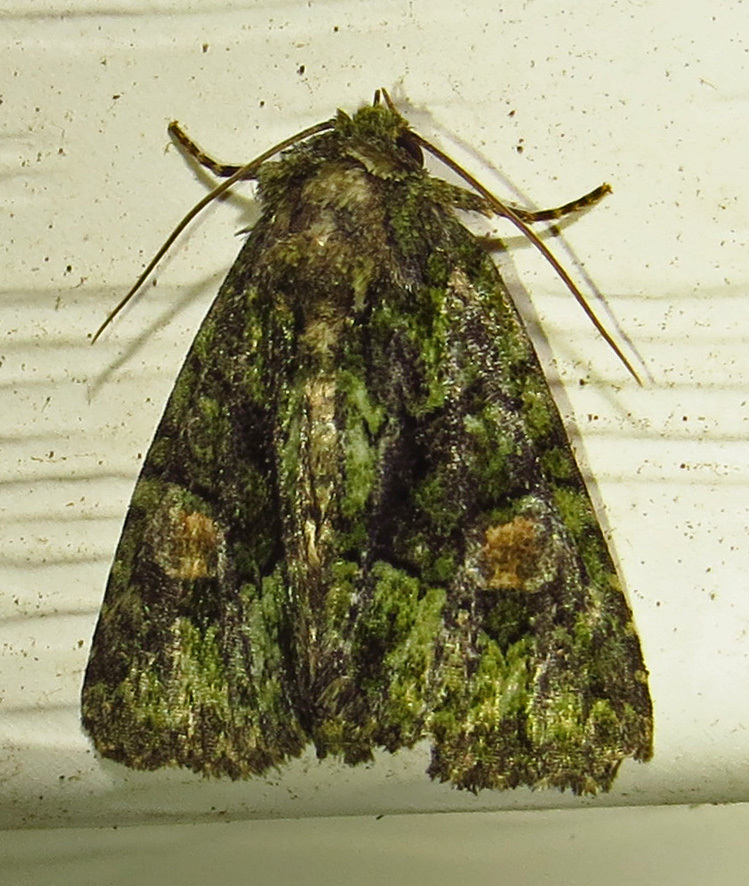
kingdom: Animalia
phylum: Arthropoda
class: Insecta
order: Lepidoptera
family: Noctuidae
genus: Phosphila
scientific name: Phosphila miselioides
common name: Spotted phosphila moth
